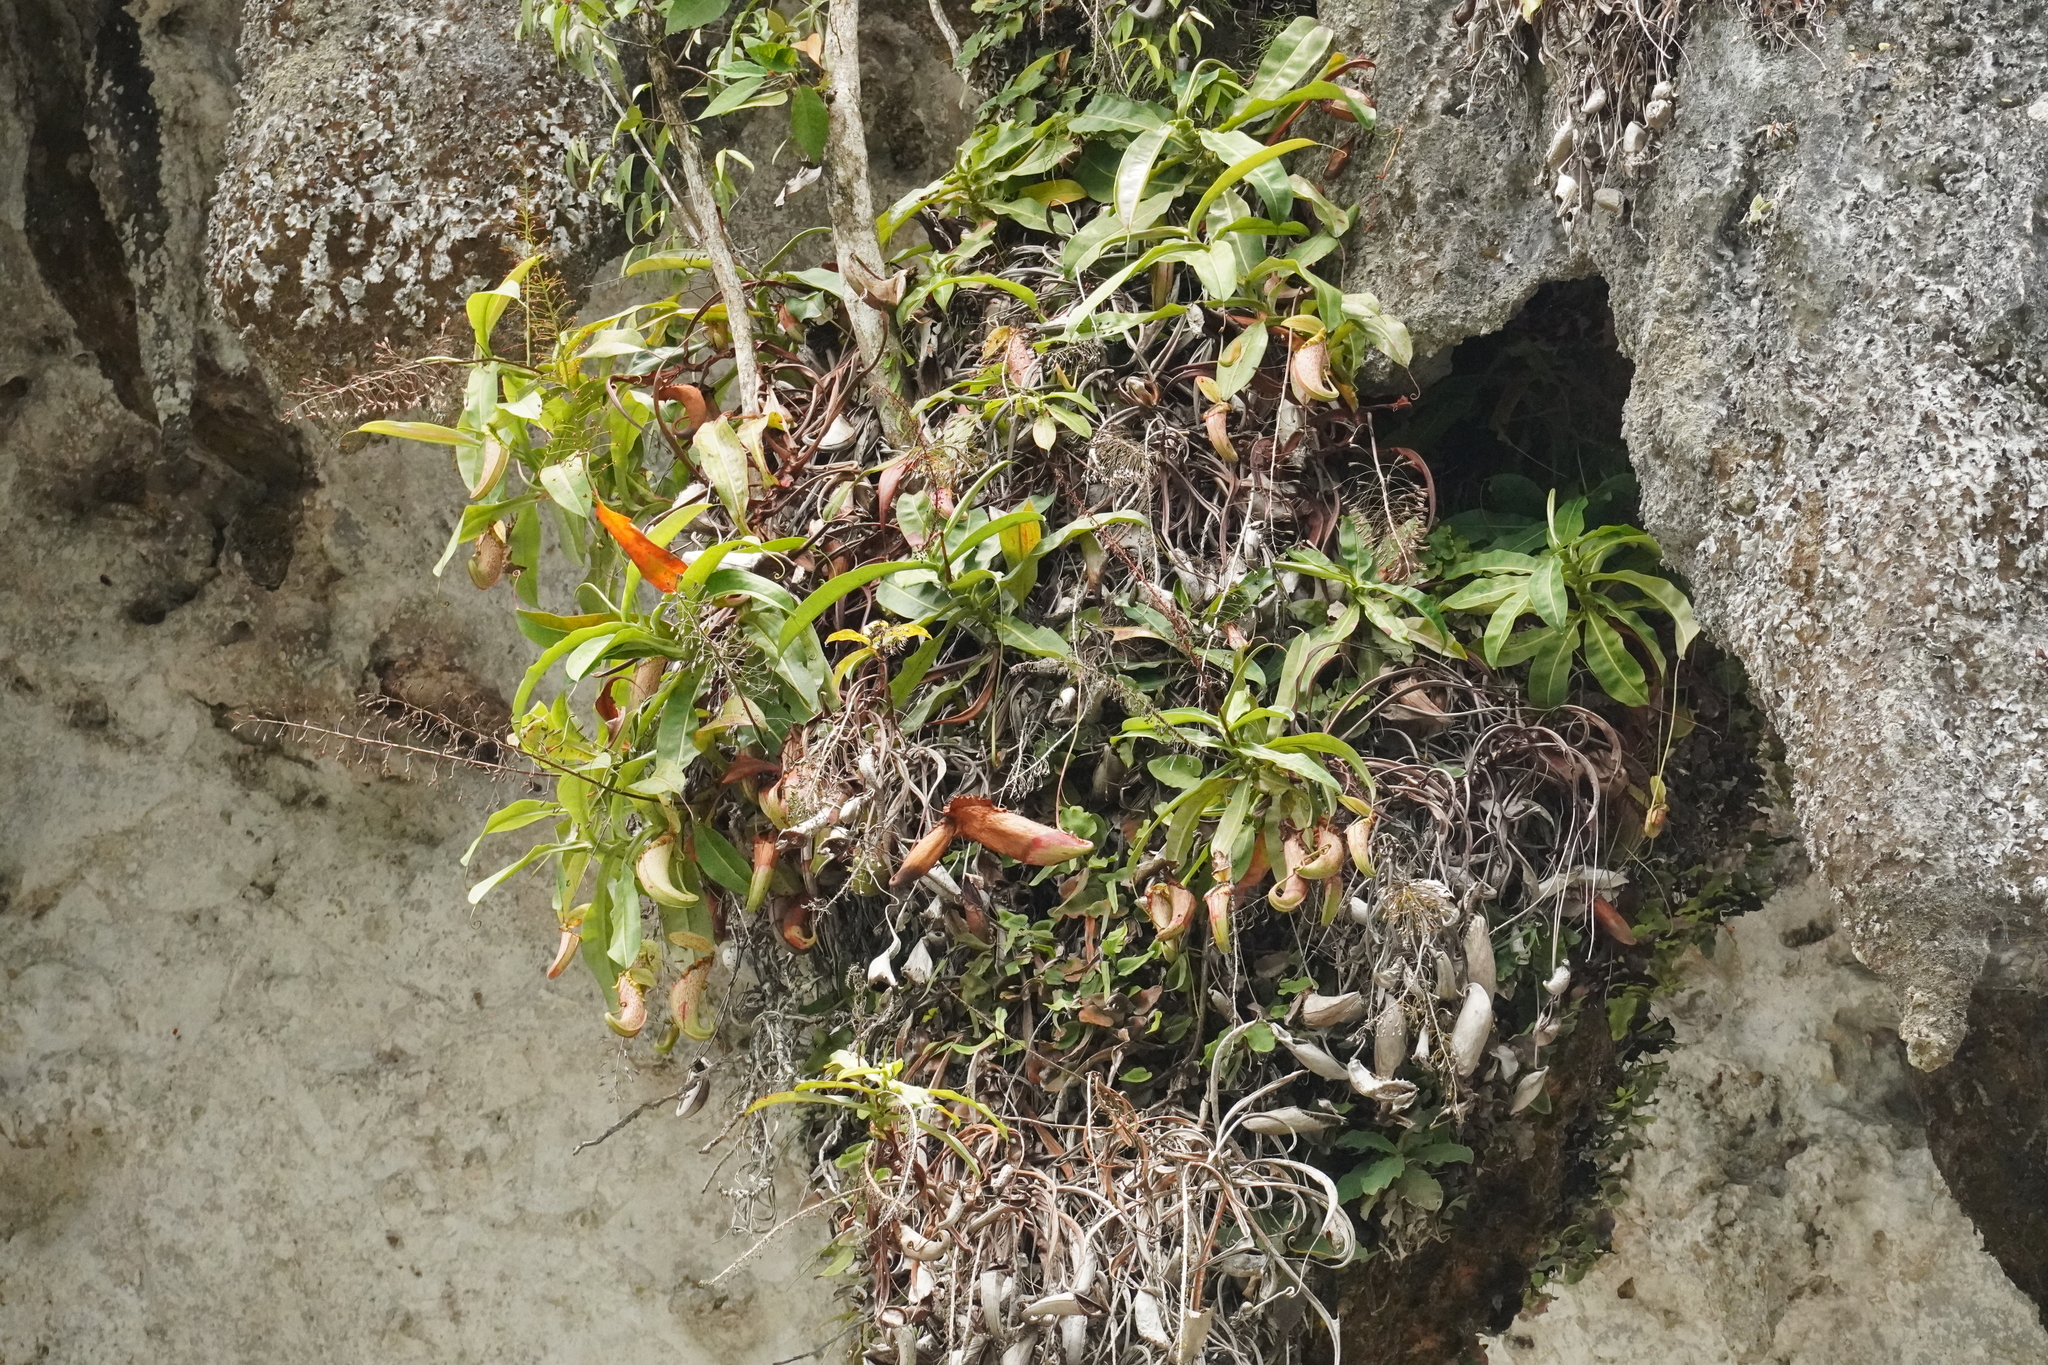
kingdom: Plantae
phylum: Tracheophyta
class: Magnoliopsida
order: Caryophyllales
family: Nepenthaceae
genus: Nepenthes
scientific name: Nepenthes northiana
